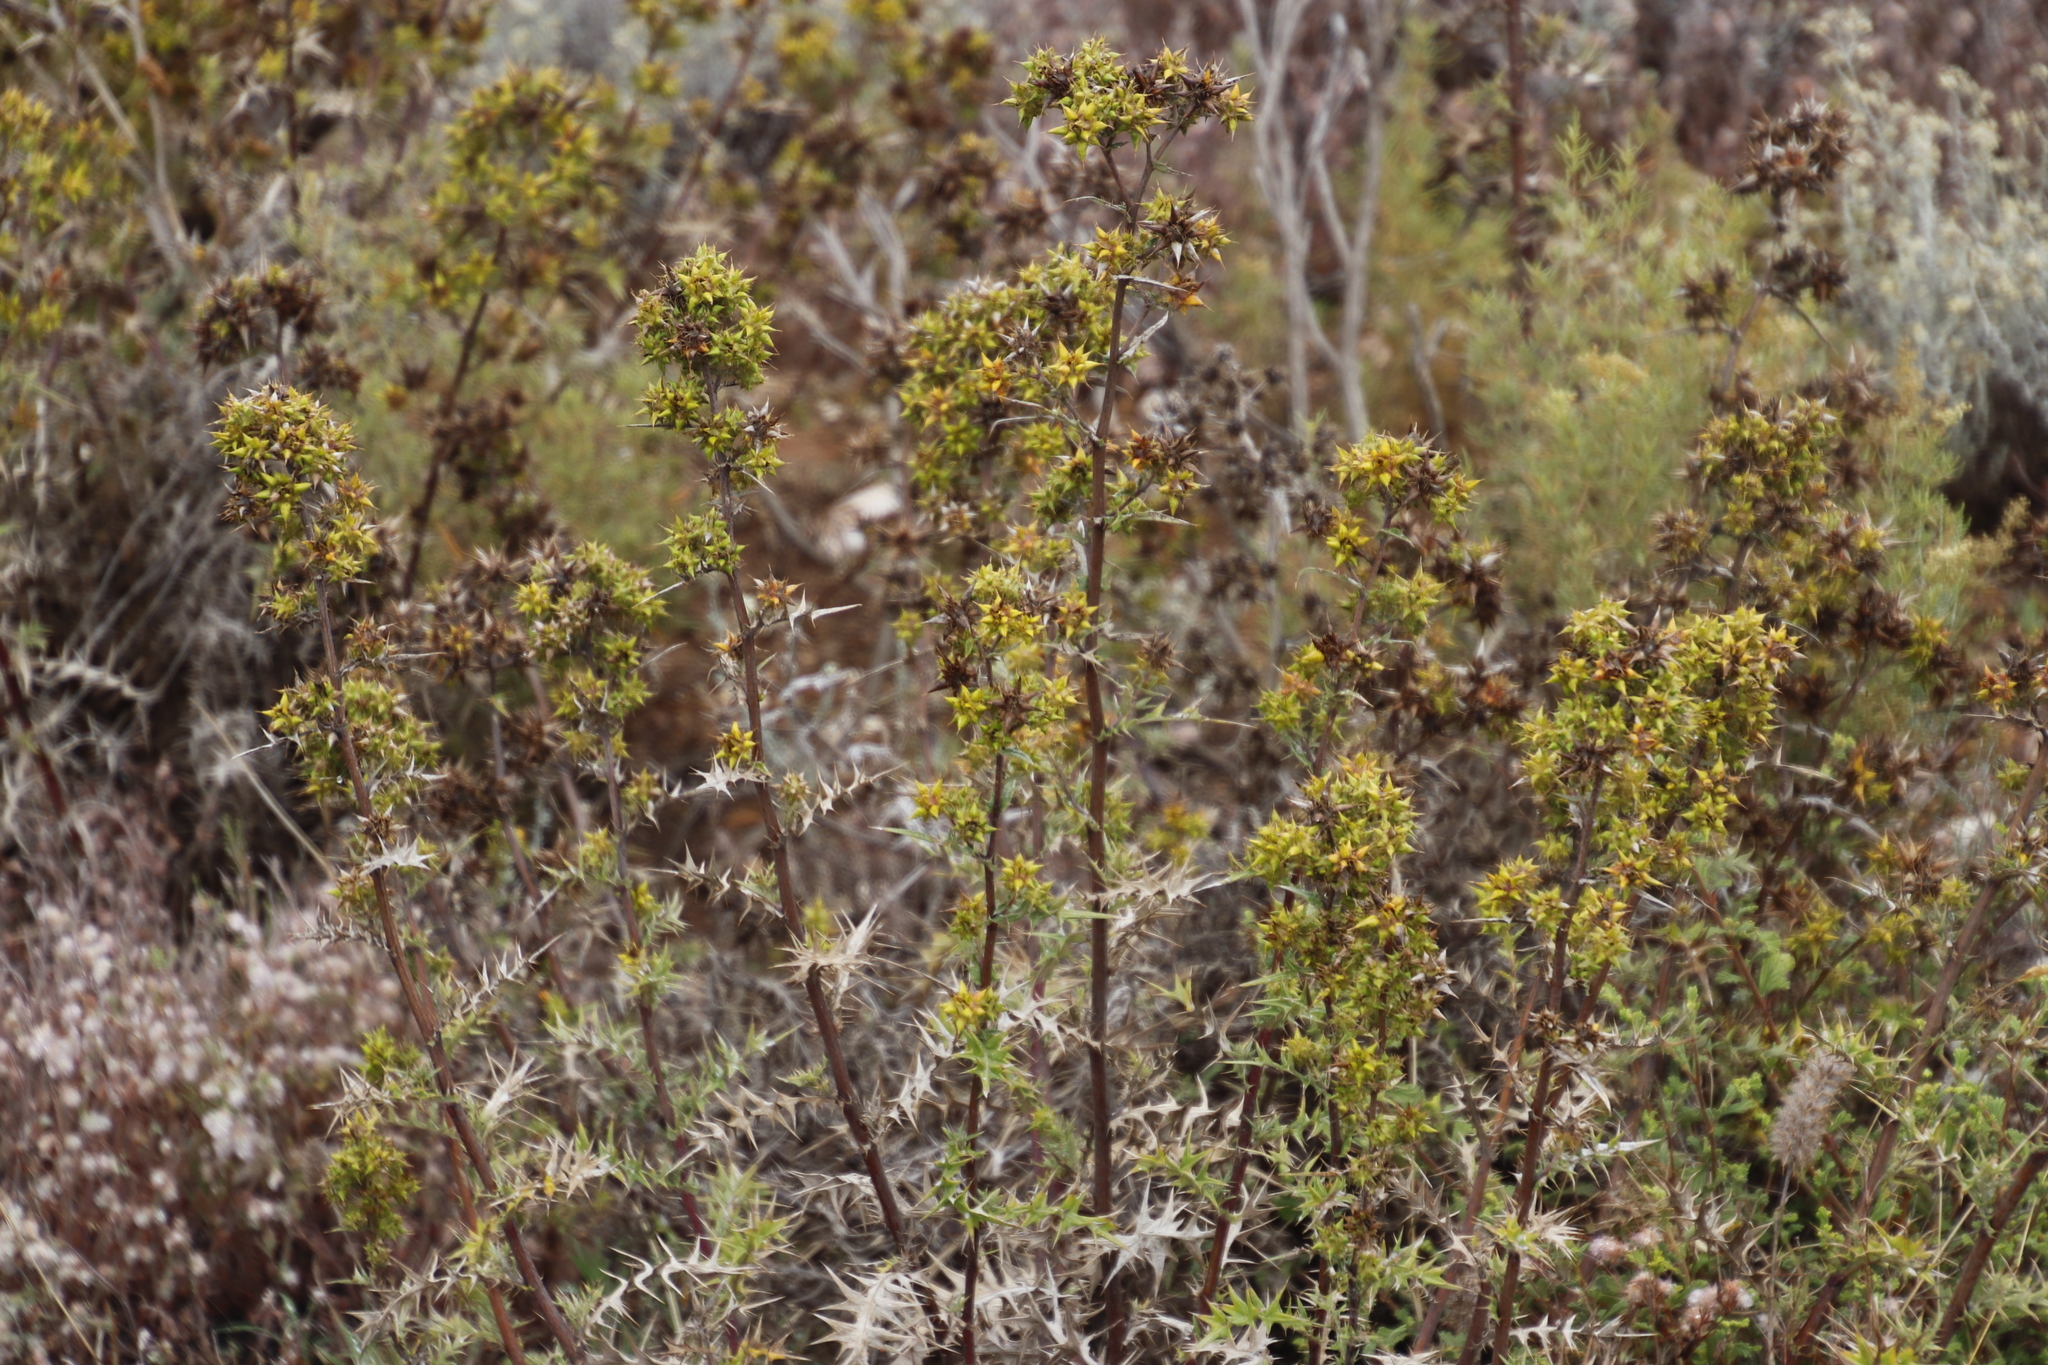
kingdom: Plantae
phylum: Tracheophyta
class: Magnoliopsida
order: Asterales
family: Asteraceae
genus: Berkheya
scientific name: Berkheya rigida
